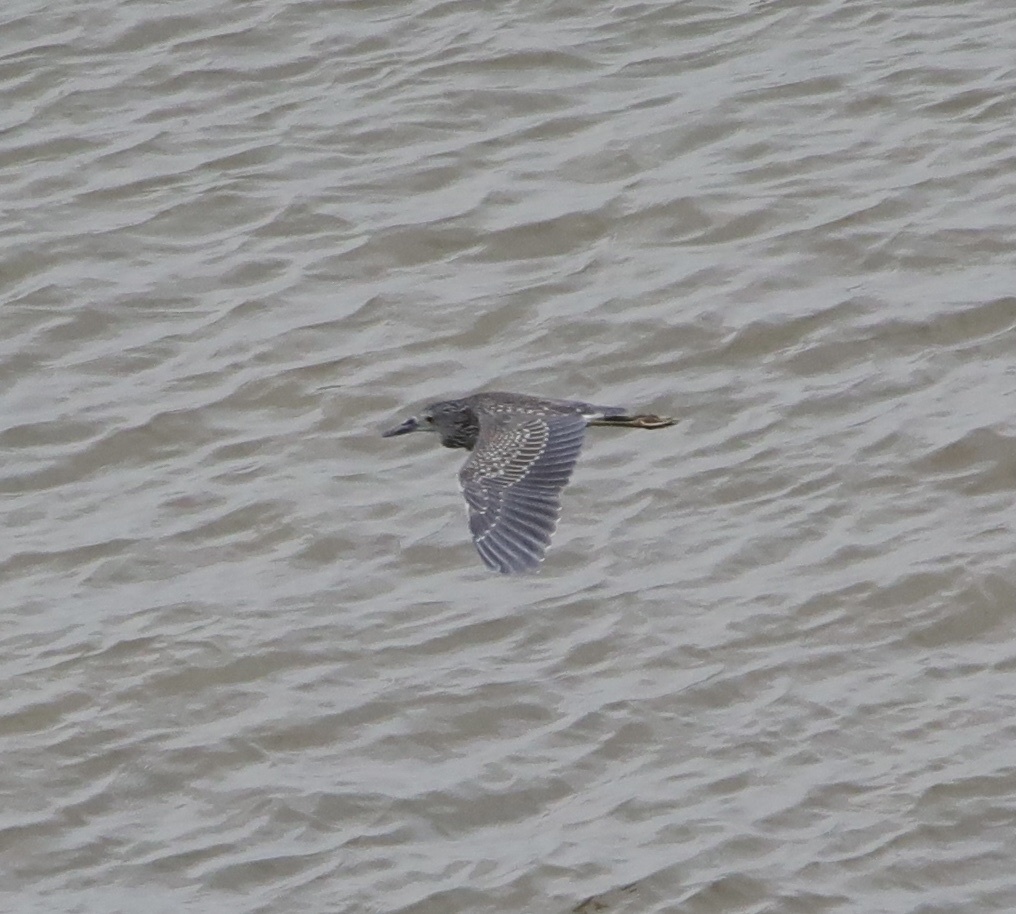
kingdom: Animalia
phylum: Chordata
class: Aves
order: Pelecaniformes
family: Ardeidae
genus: Nyctanassa
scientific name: Nyctanassa violacea
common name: Yellow-crowned night heron
